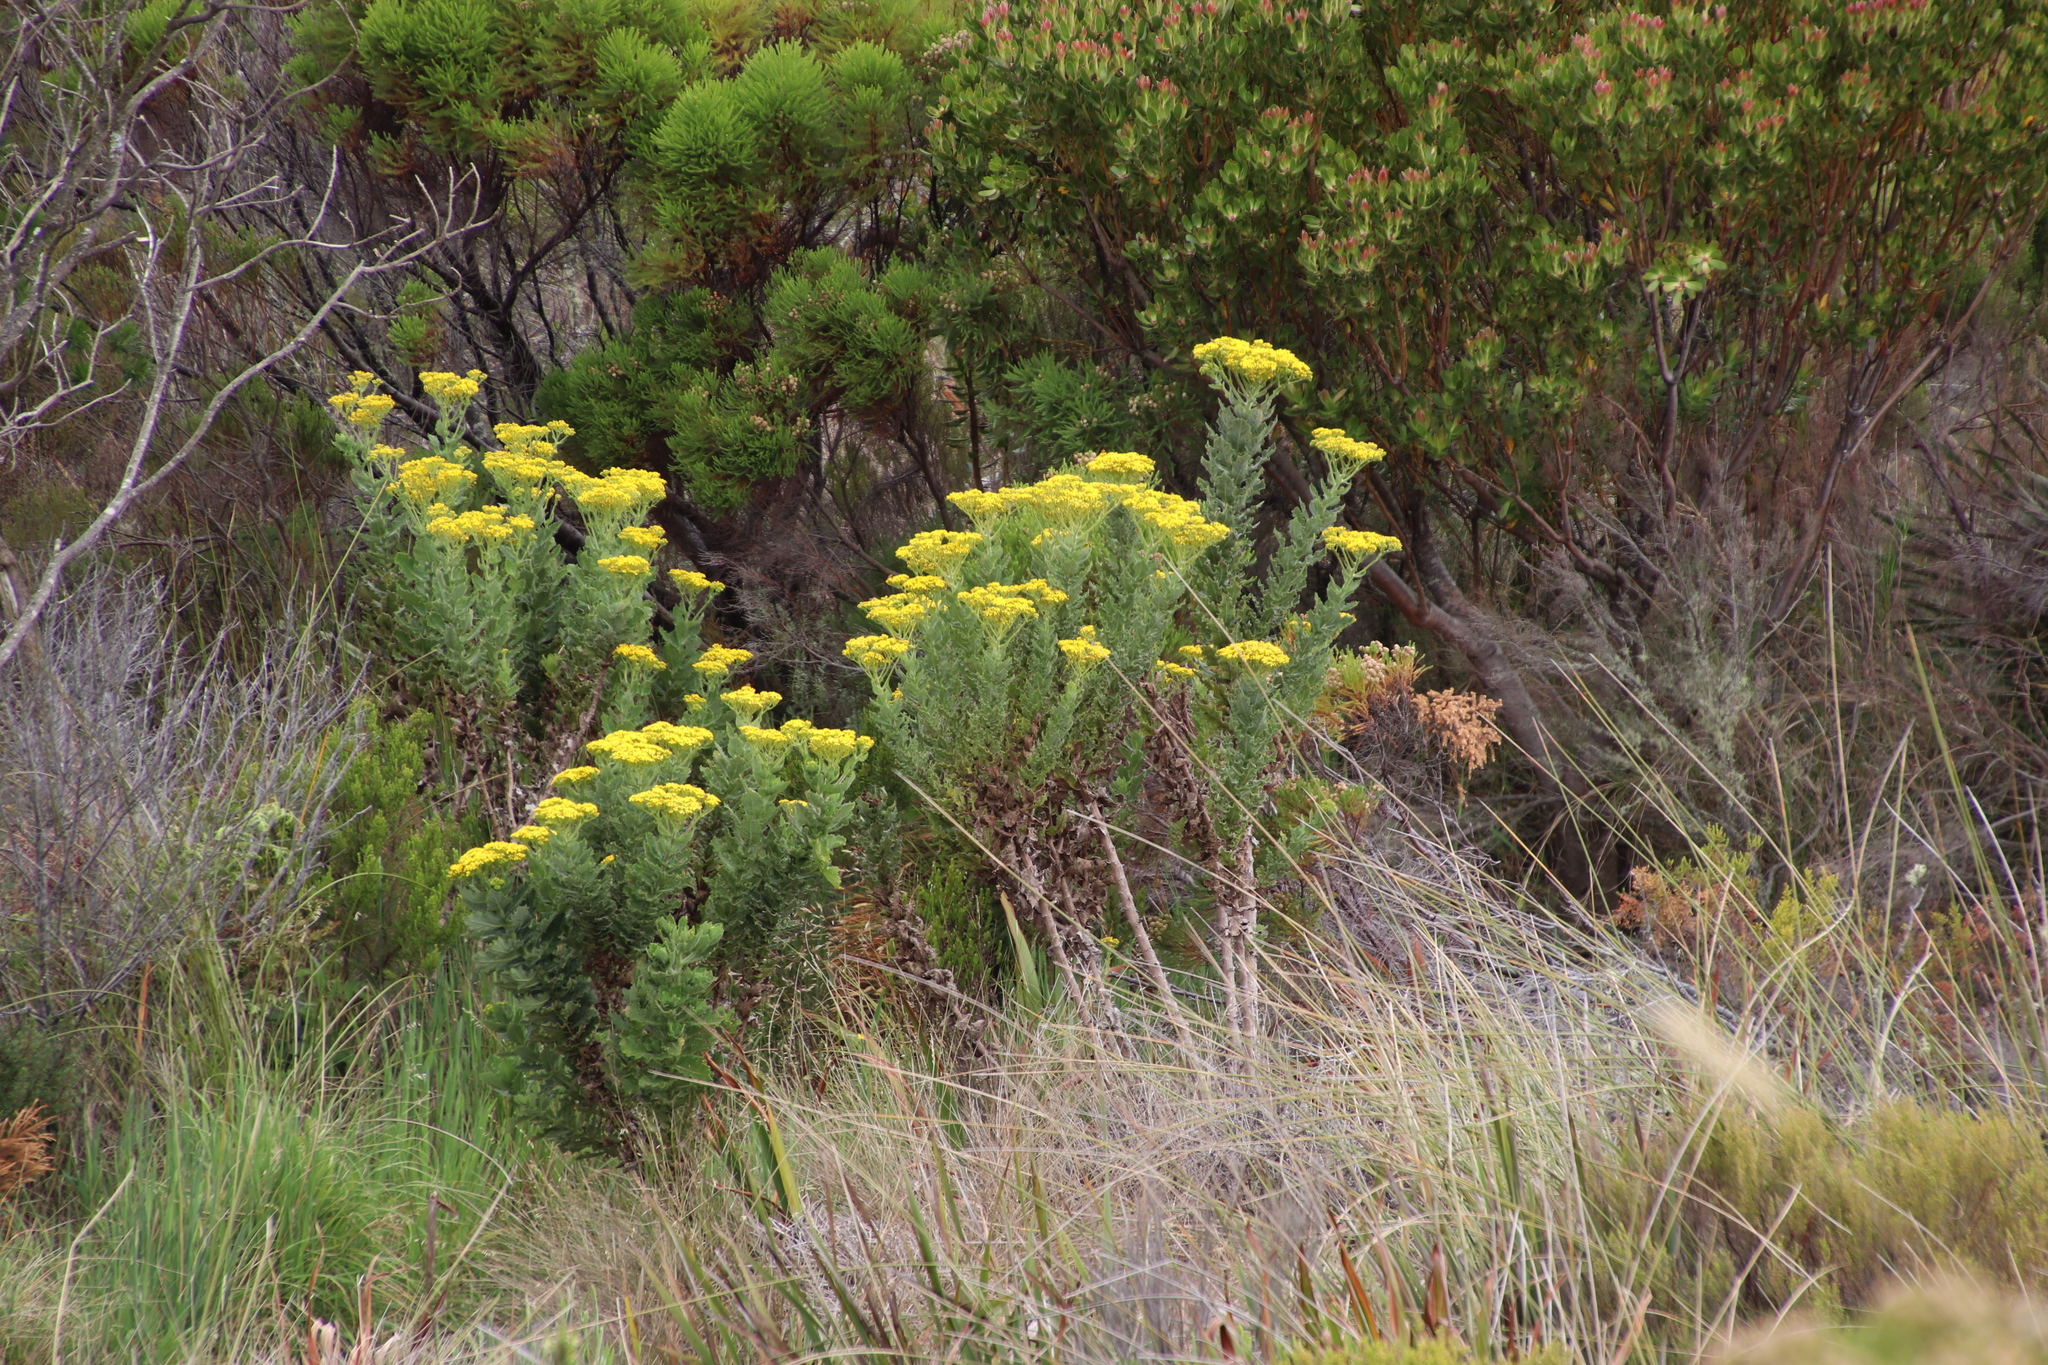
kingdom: Plantae
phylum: Tracheophyta
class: Magnoliopsida
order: Asterales
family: Asteraceae
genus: Senecio
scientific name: Senecio rigidus
